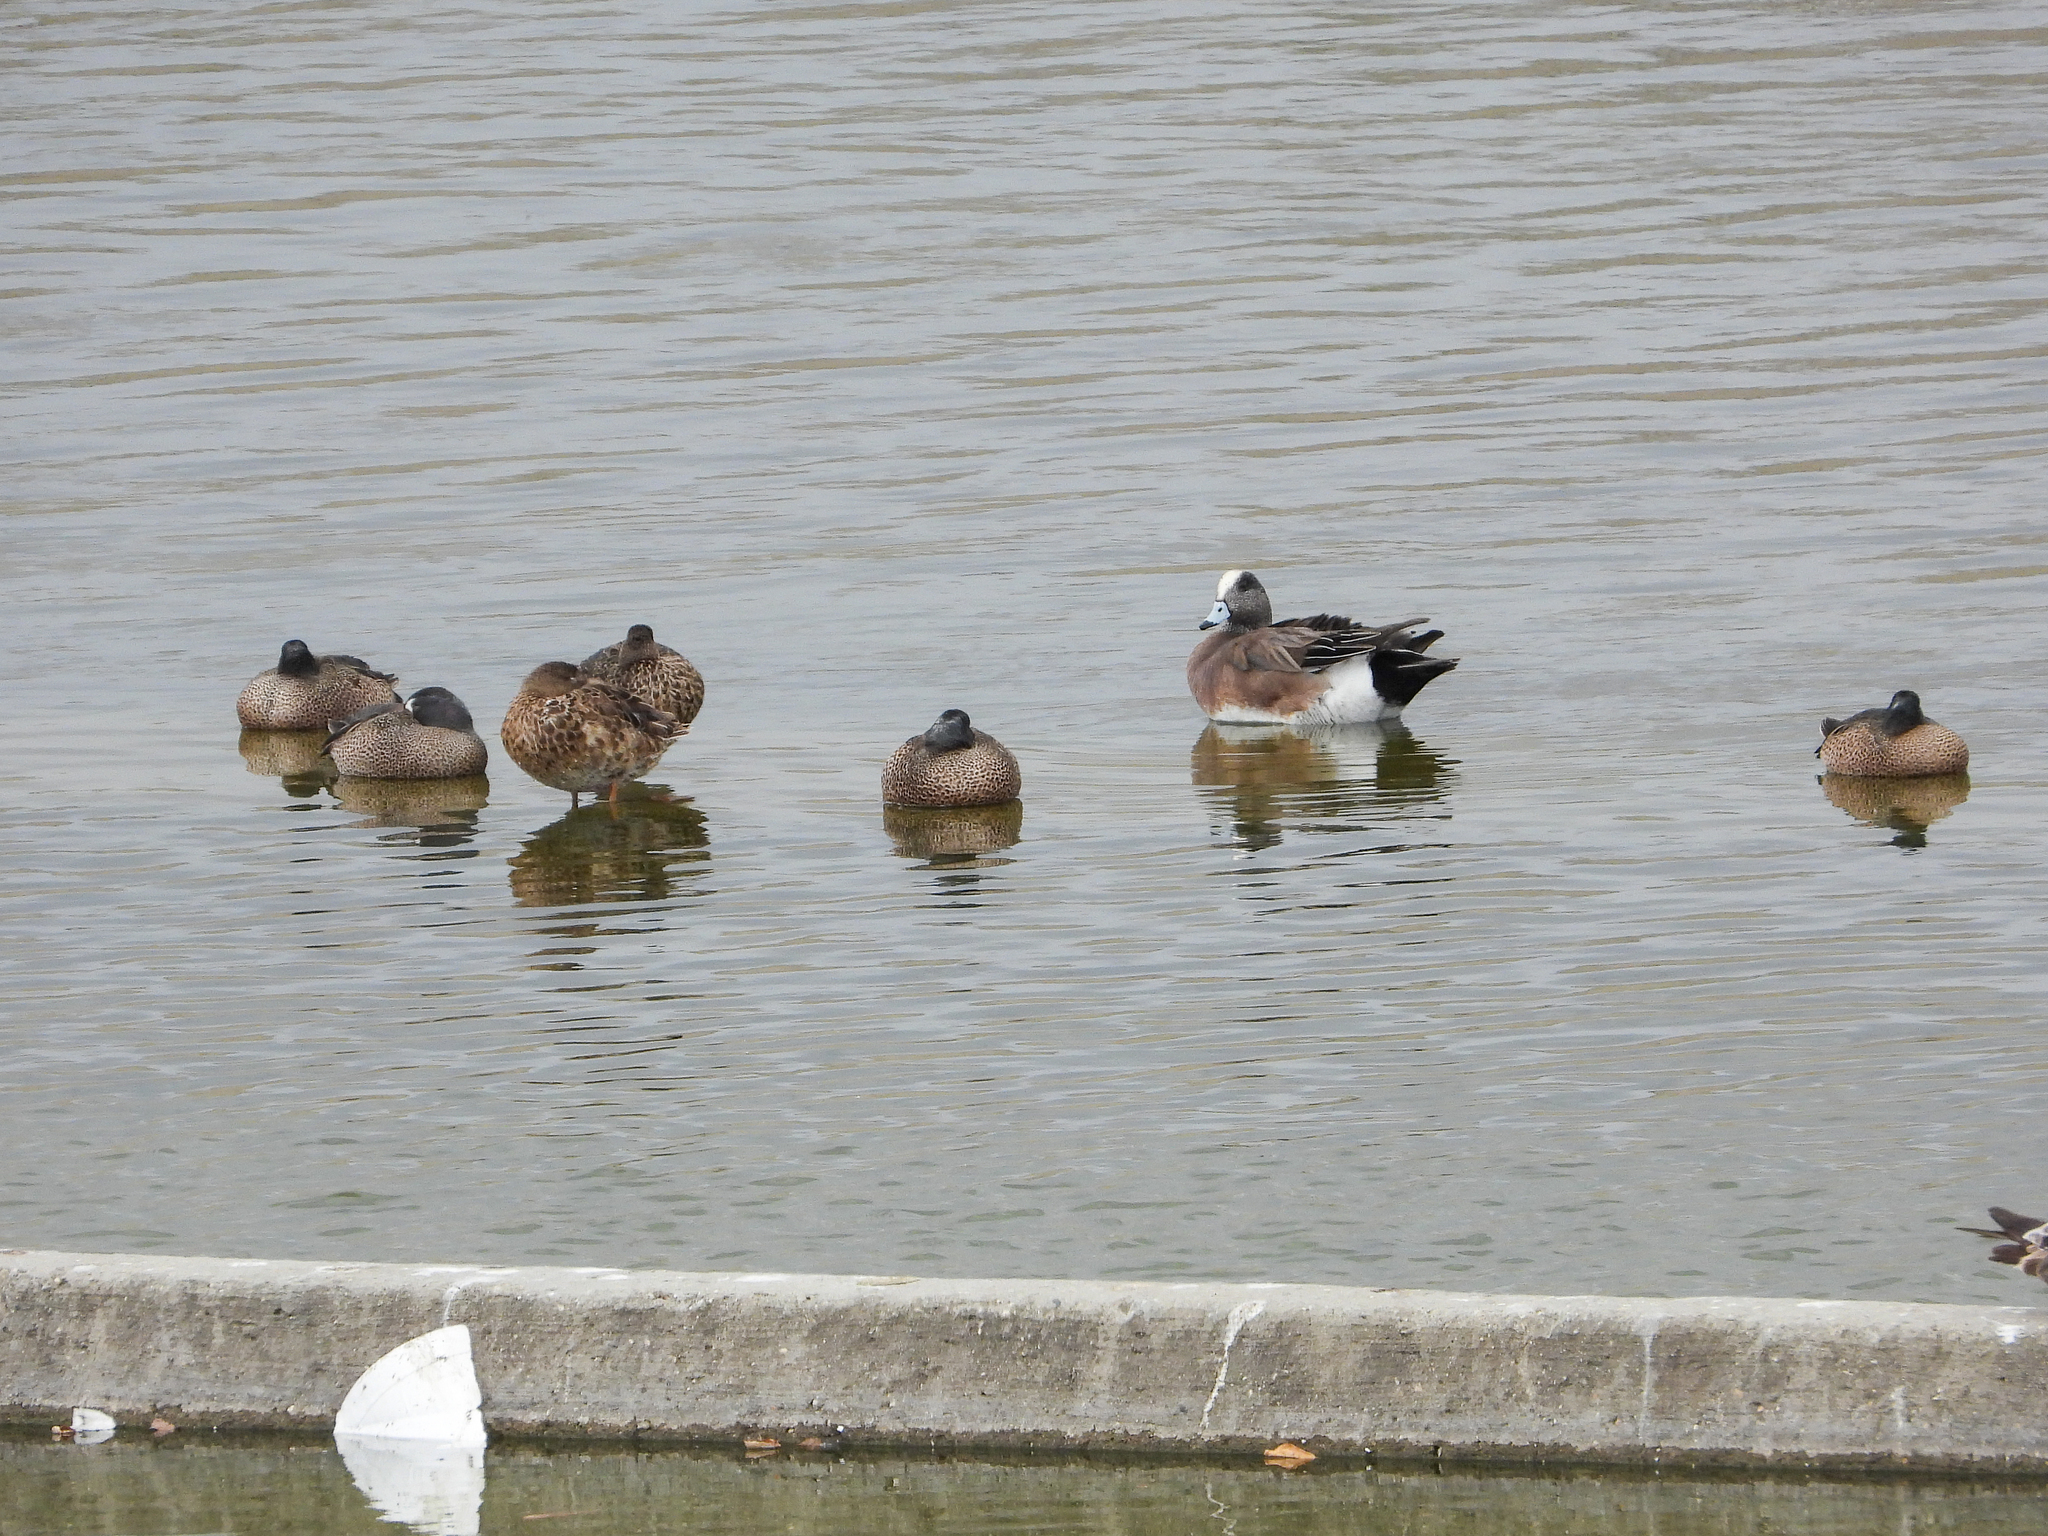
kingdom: Animalia
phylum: Chordata
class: Aves
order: Anseriformes
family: Anatidae
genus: Mareca
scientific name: Mareca americana
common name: American wigeon
